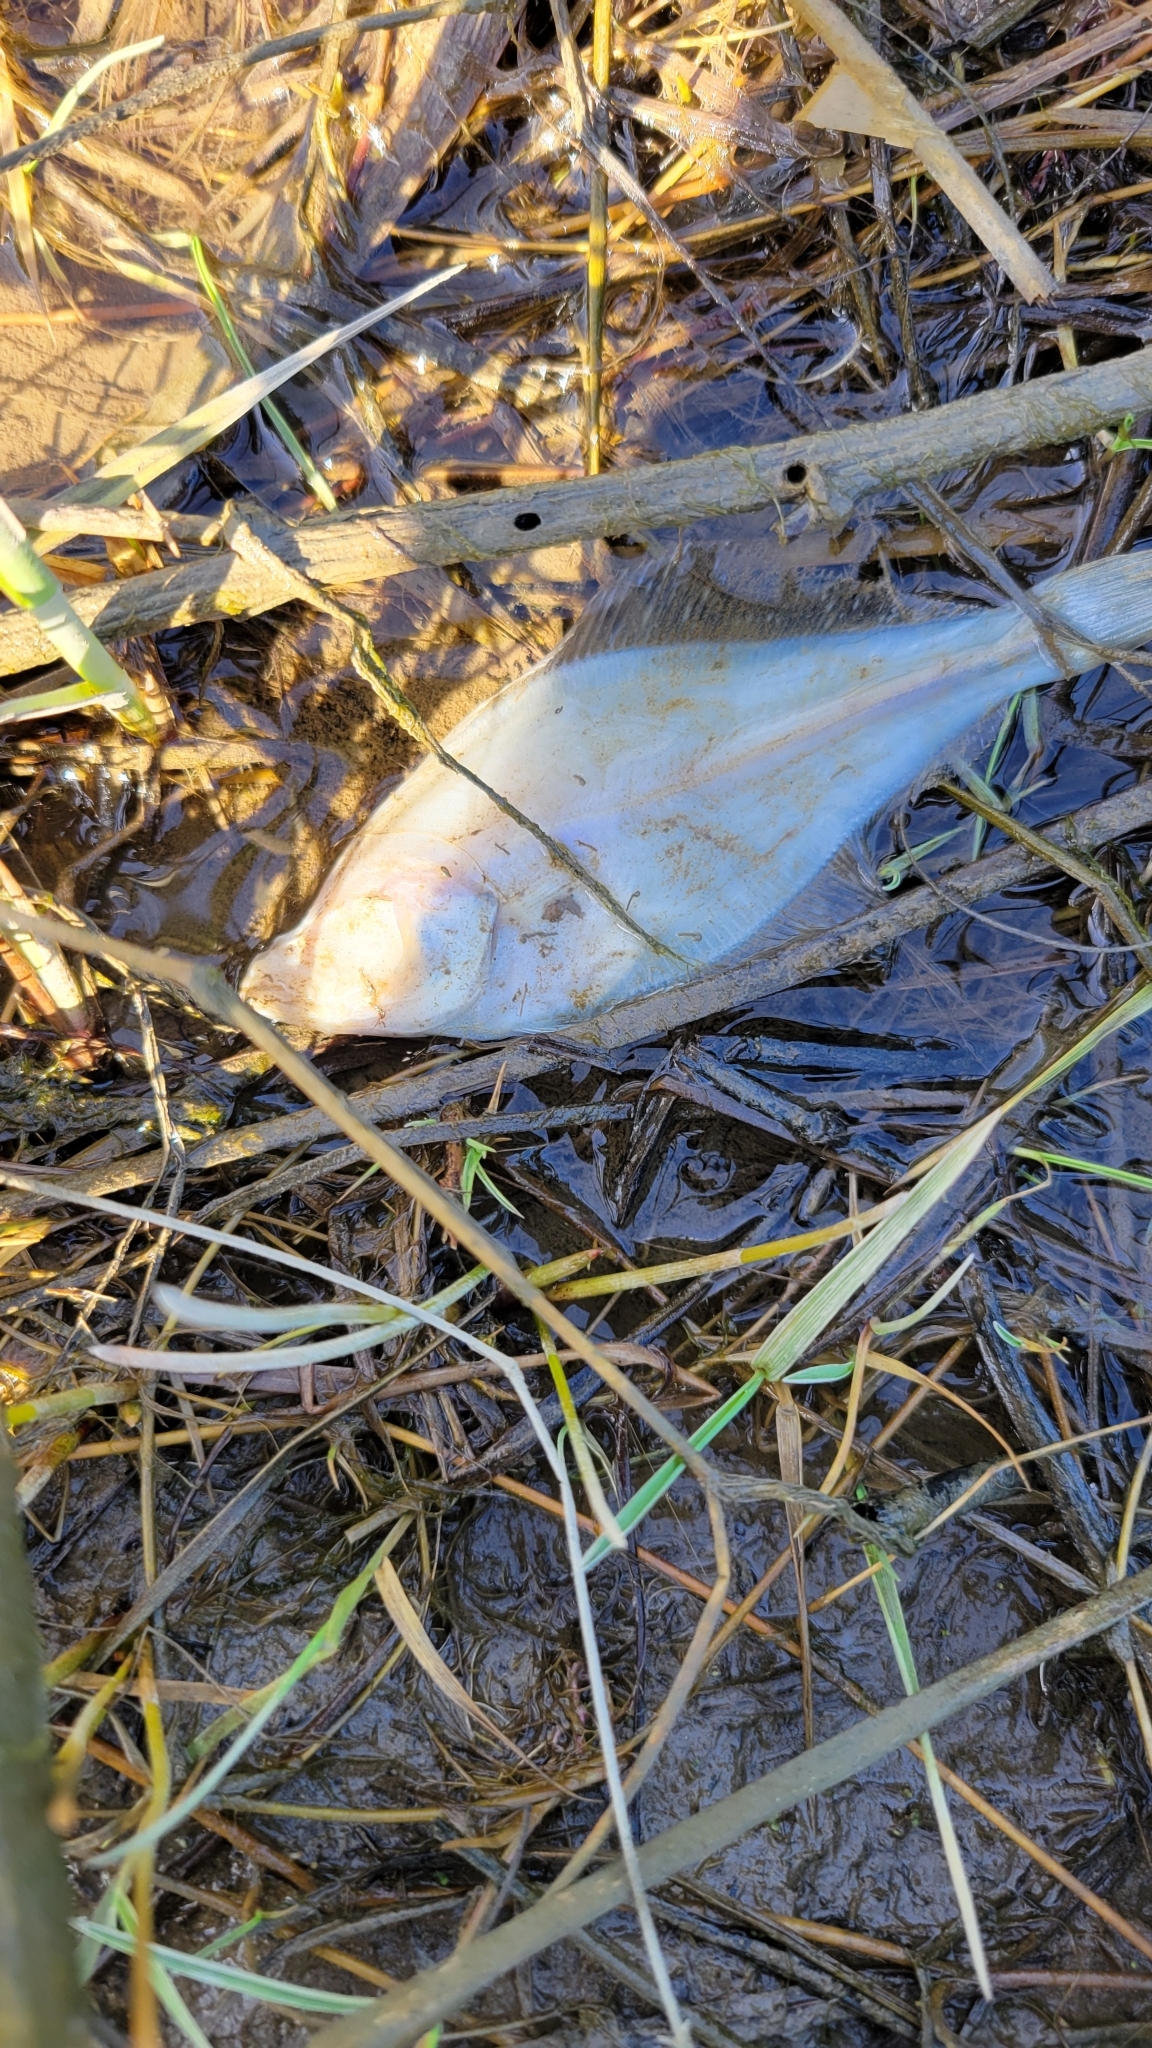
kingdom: Animalia
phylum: Chordata
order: Pleuronectiformes
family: Pleuronectidae
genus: Parophrys
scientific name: Parophrys vetulus
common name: English sole
